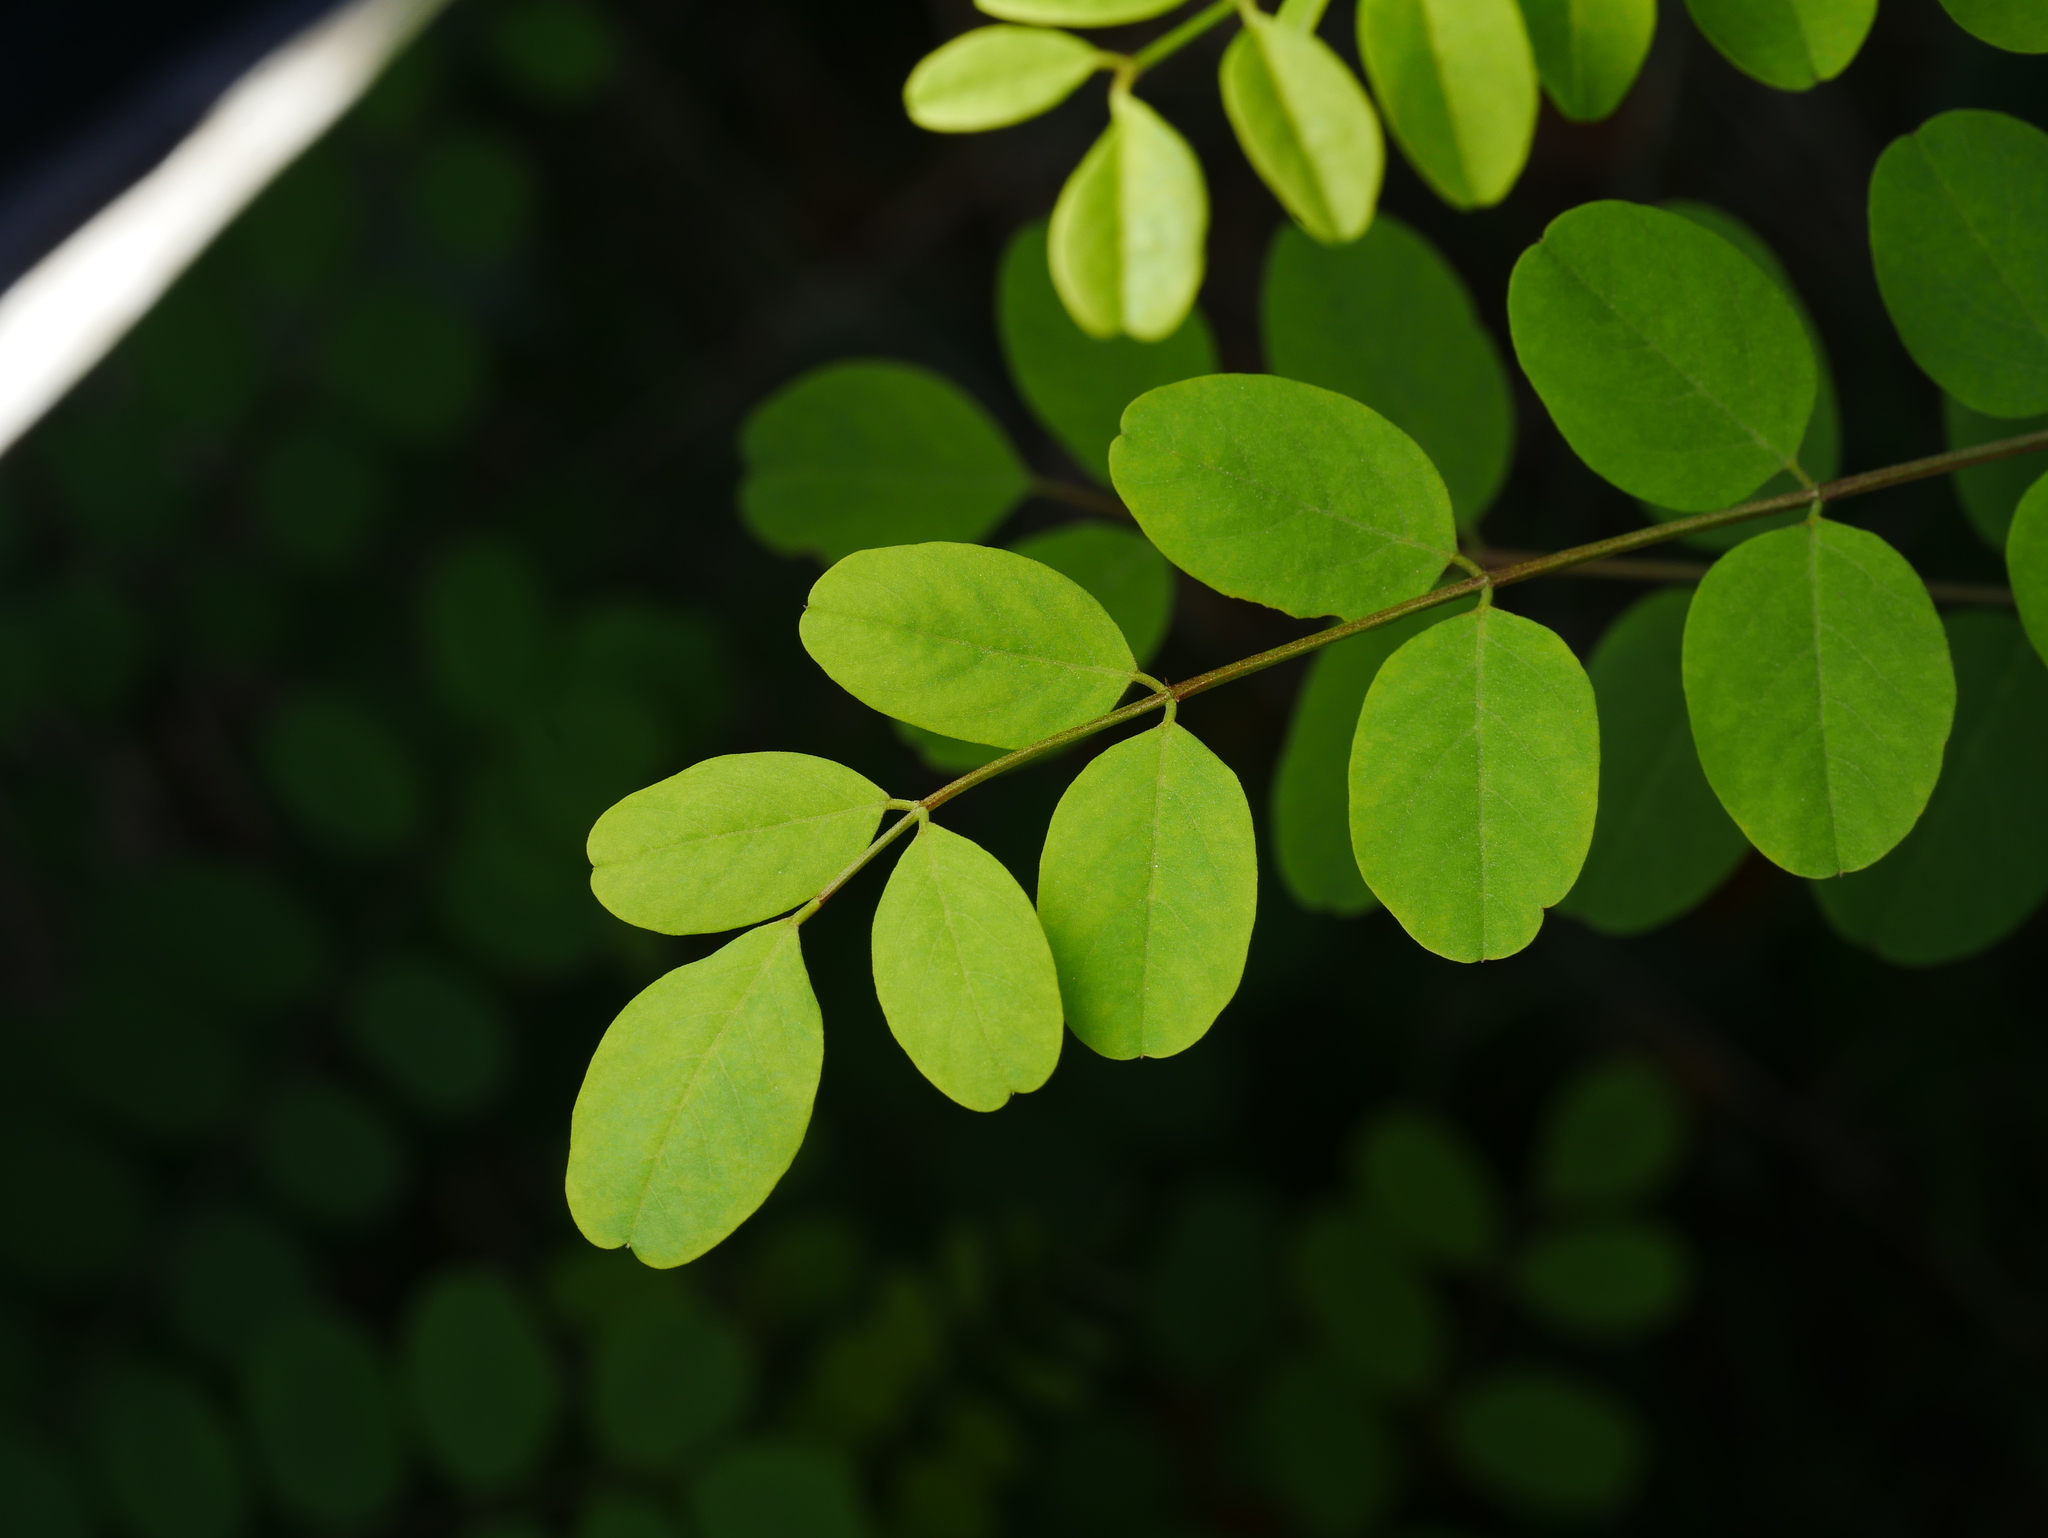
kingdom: Plantae
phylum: Tracheophyta
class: Magnoliopsida
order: Fabales
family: Fabaceae
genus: Robinia
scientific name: Robinia pseudoacacia
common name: Black locust
